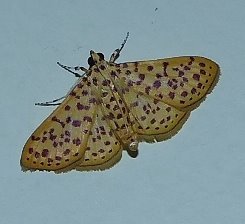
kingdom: Animalia
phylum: Arthropoda
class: Insecta
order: Lepidoptera
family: Crambidae
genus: Polygrammodes
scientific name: Polygrammodes elevata
